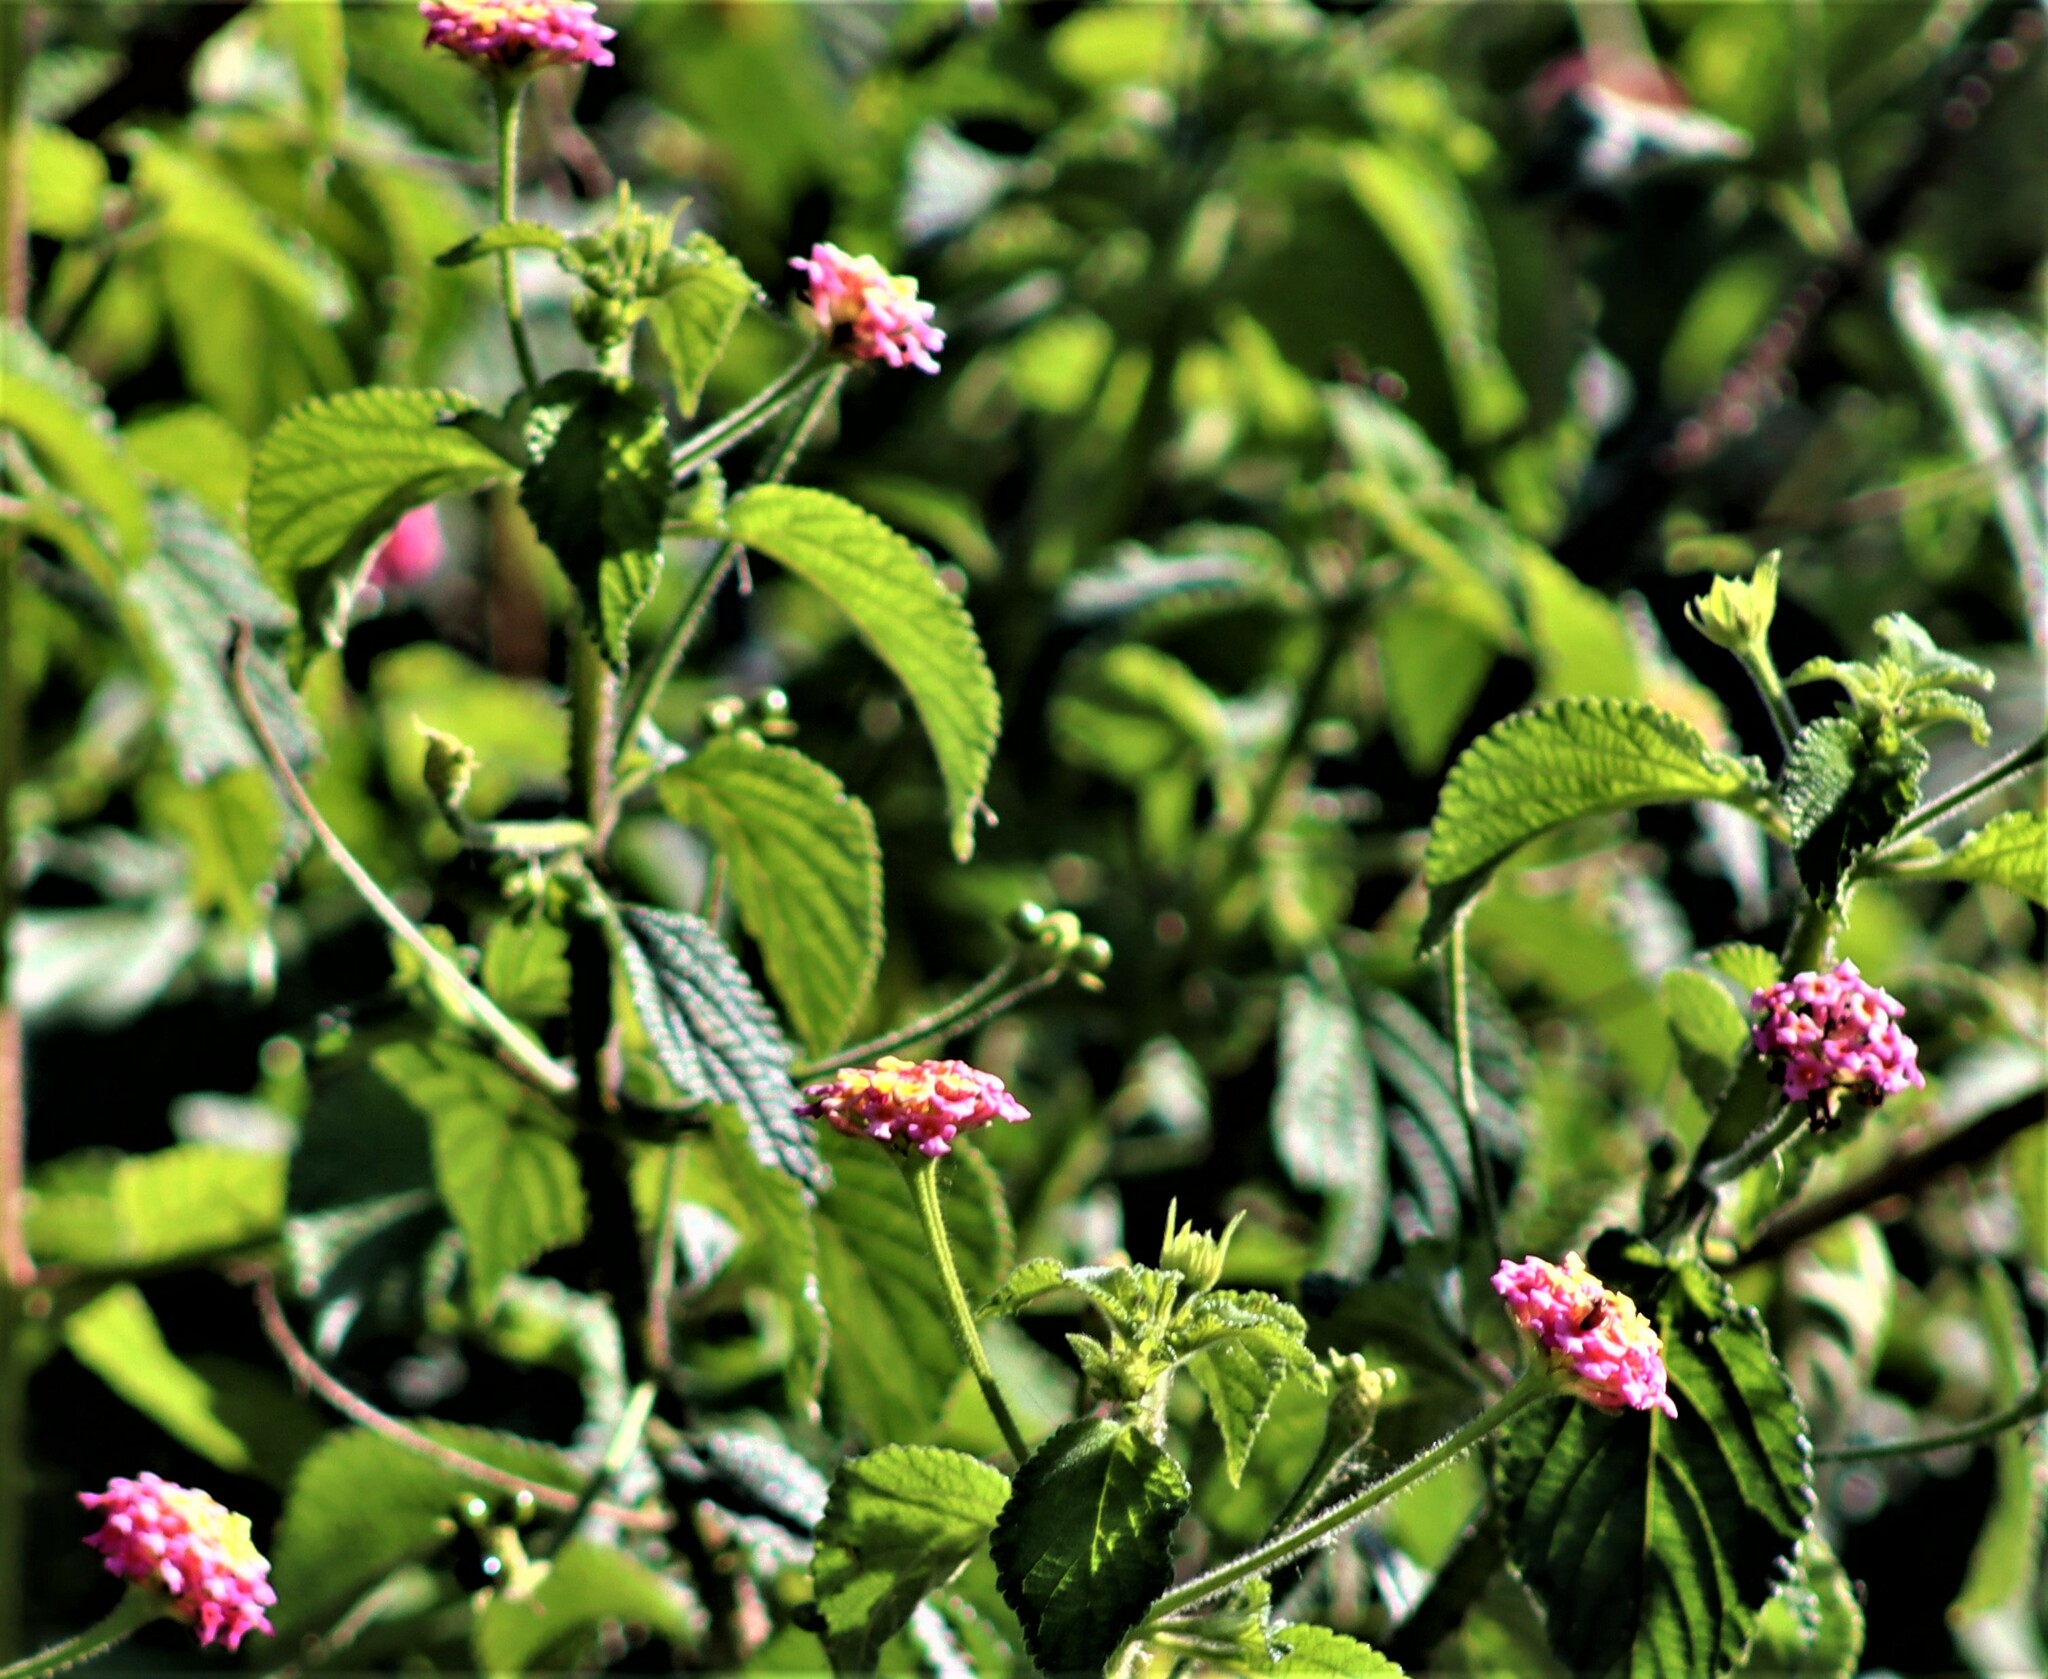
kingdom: Plantae
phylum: Tracheophyta
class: Magnoliopsida
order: Lamiales
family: Verbenaceae
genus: Lantana
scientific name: Lantana camara
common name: Lantana
